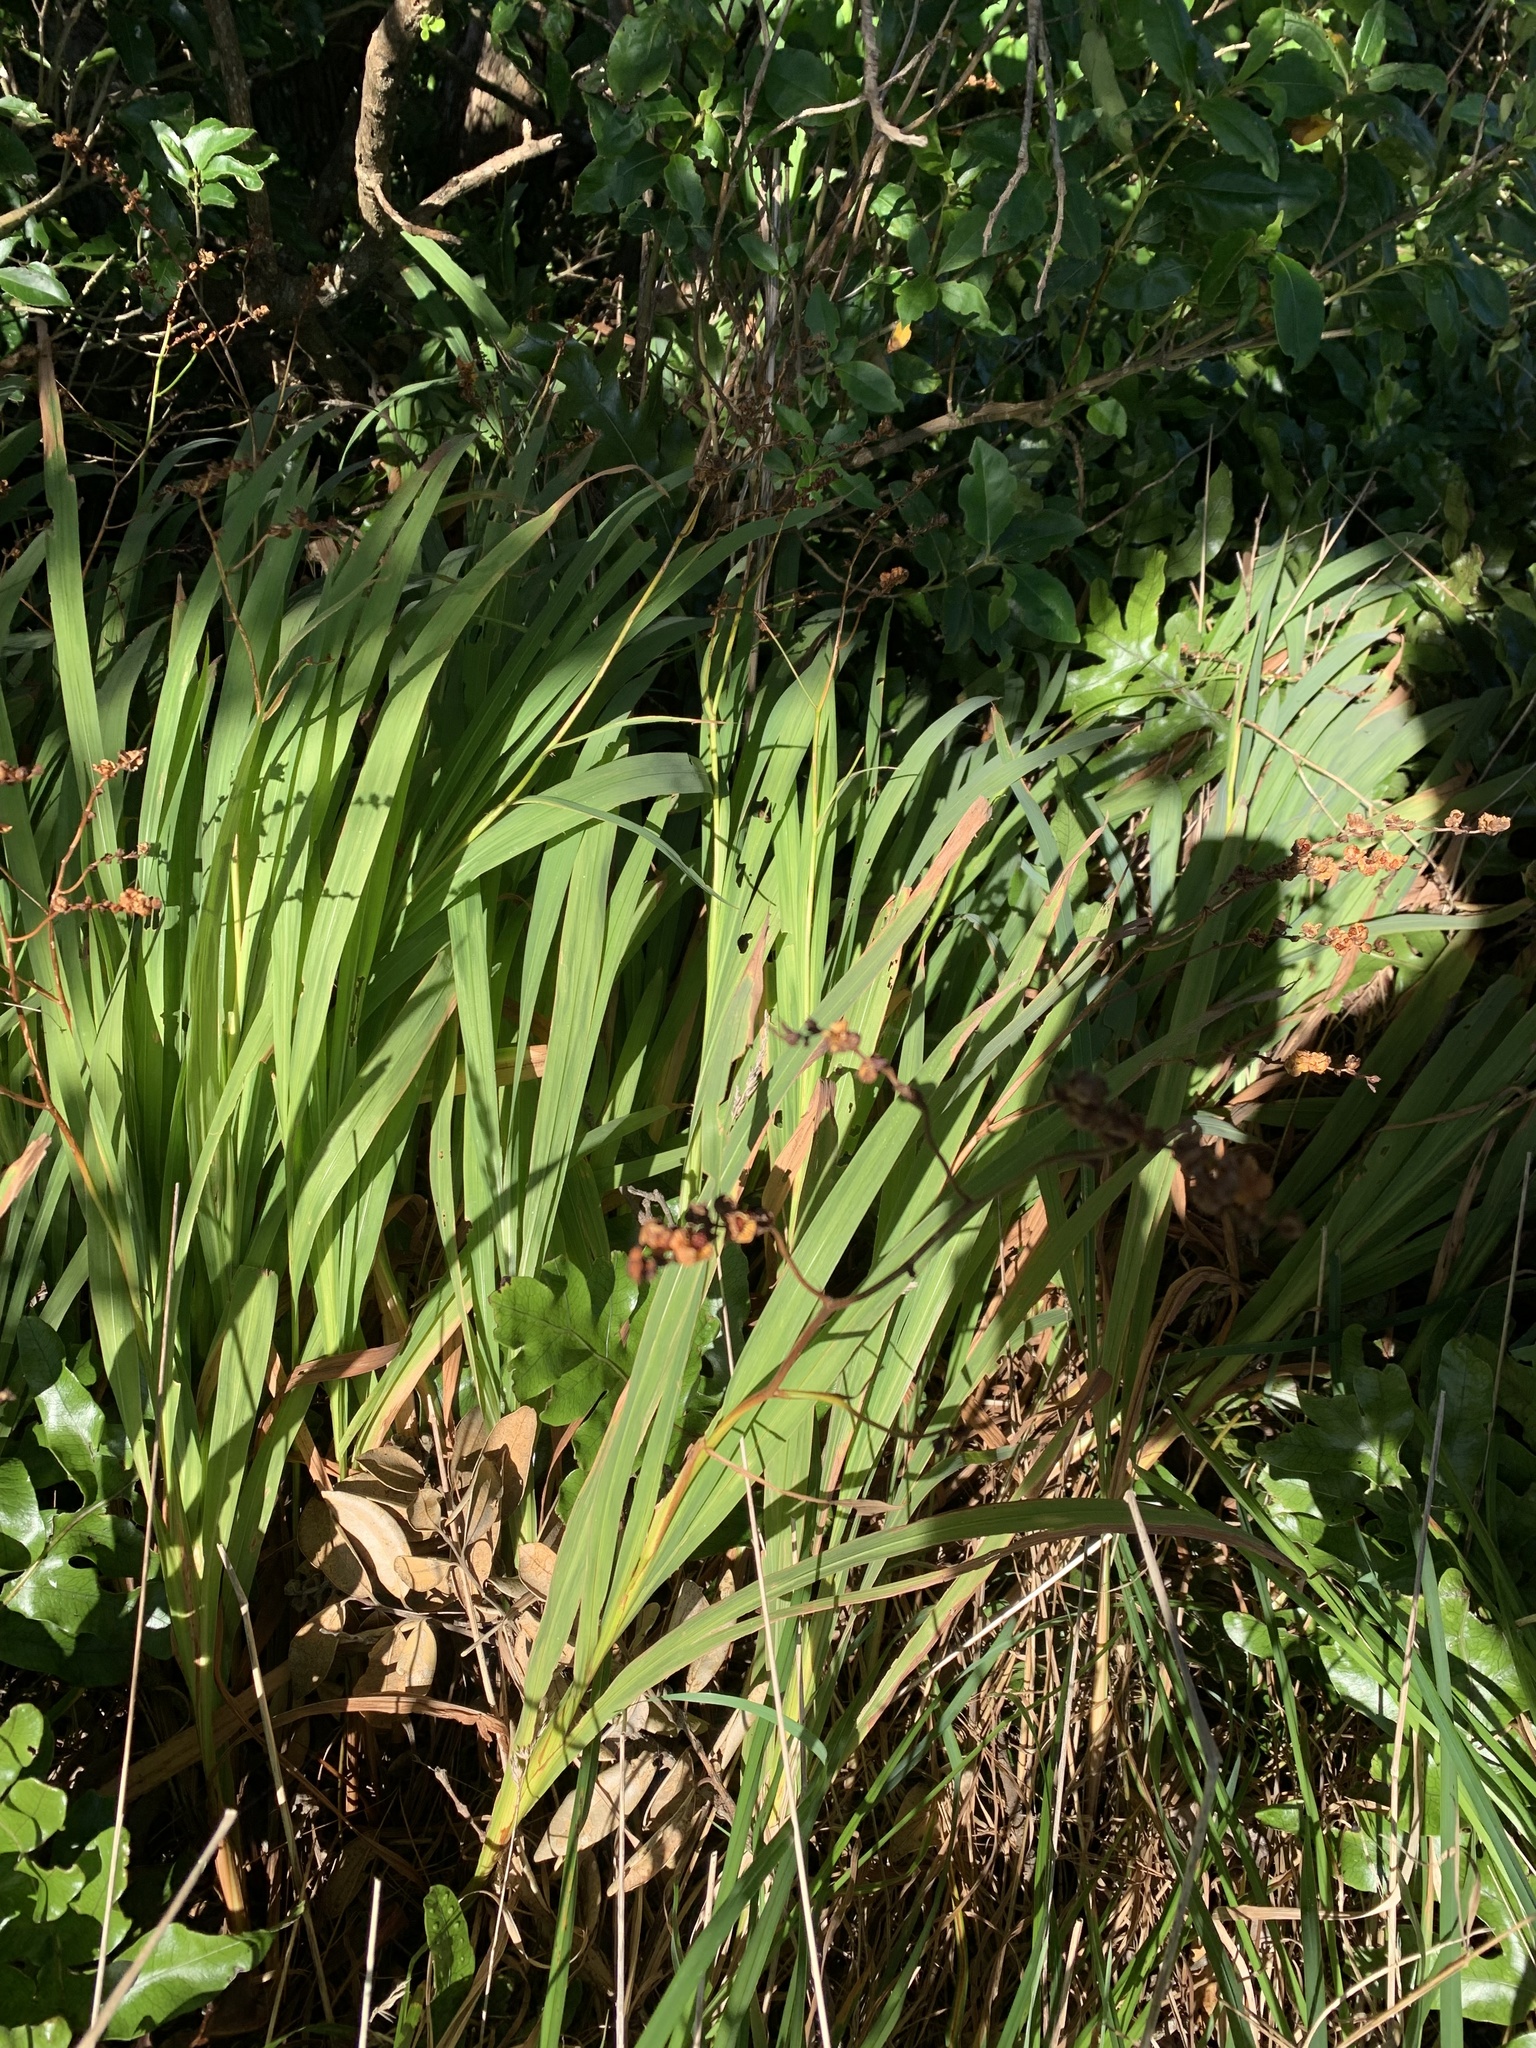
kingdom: Plantae
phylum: Tracheophyta
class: Liliopsida
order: Asparagales
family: Iridaceae
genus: Crocosmia
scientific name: Crocosmia crocosmiiflora
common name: Montbretia
